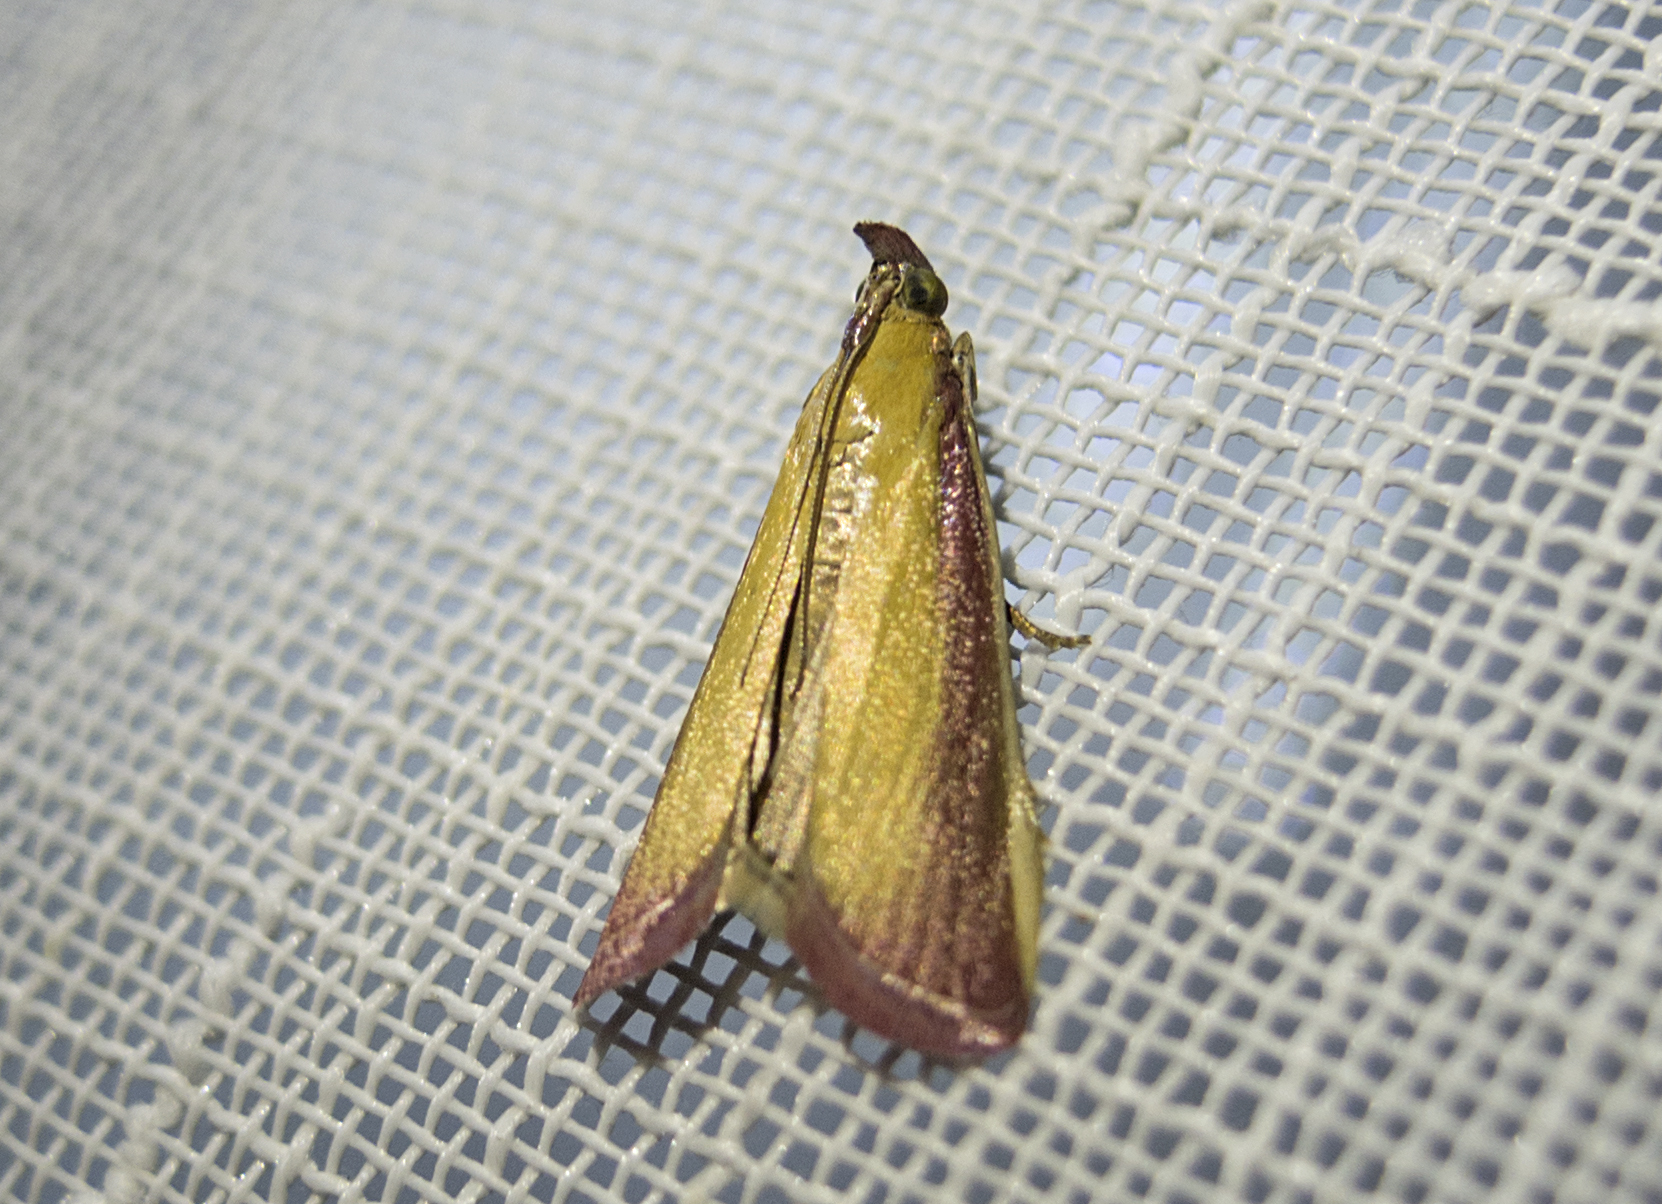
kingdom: Animalia
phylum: Arthropoda
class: Insecta
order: Lepidoptera
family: Pyralidae
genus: Oncocera
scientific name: Oncocera semirubella
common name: Rosy-striped knot-horn
